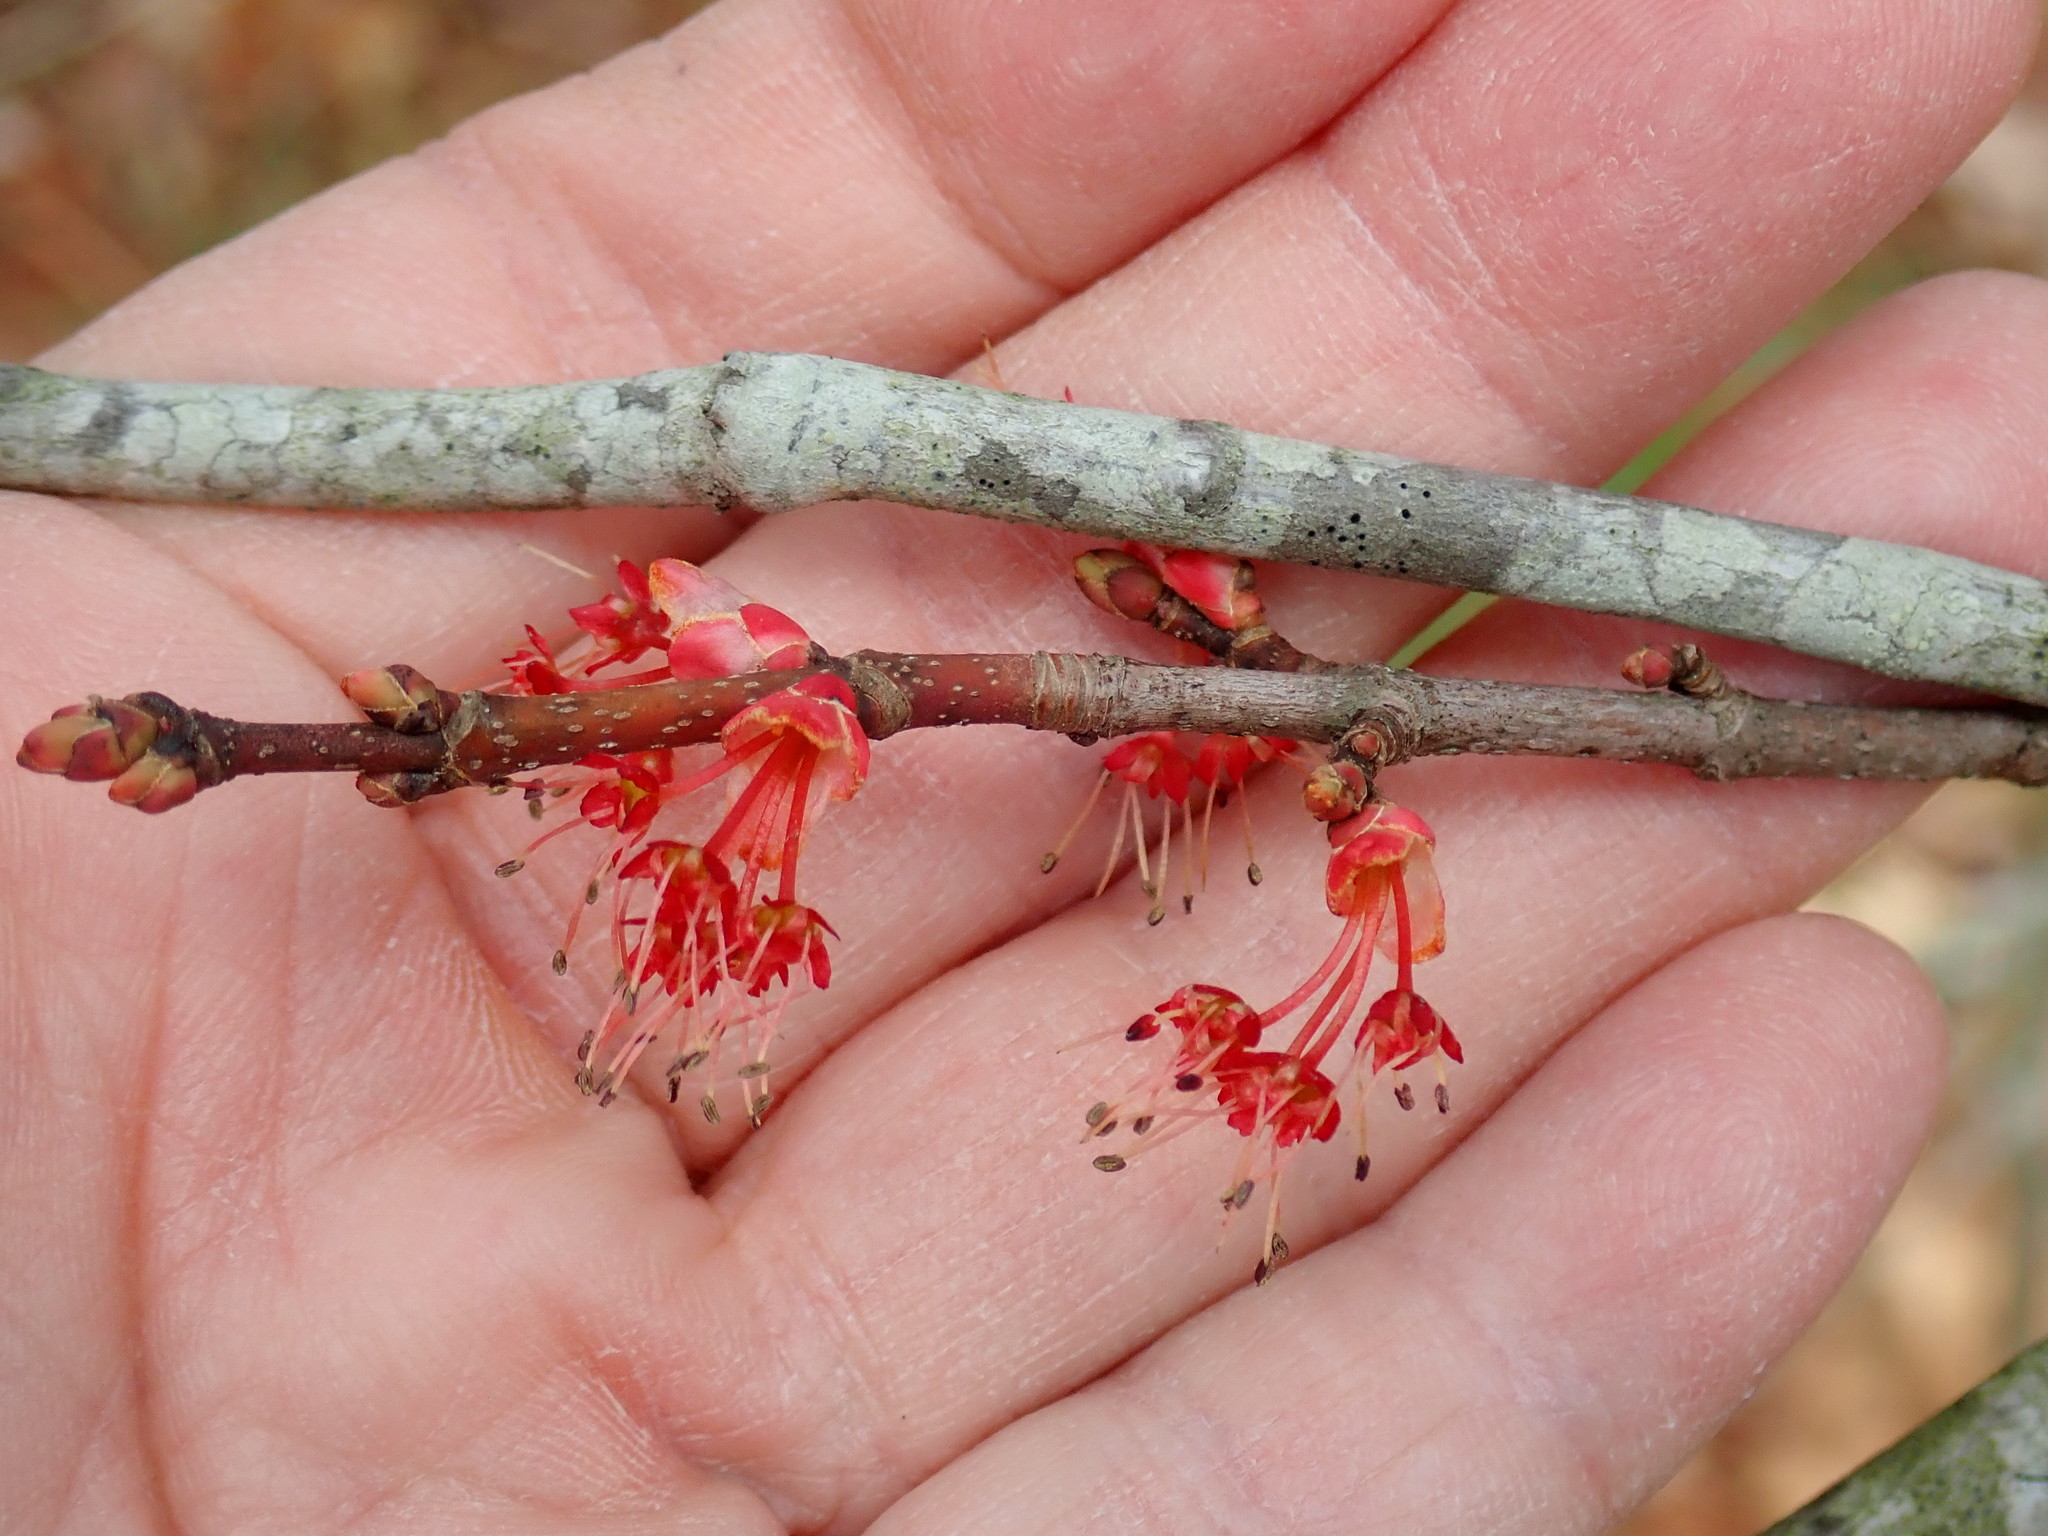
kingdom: Plantae
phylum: Tracheophyta
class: Magnoliopsida
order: Sapindales
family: Sapindaceae
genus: Acer
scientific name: Acer rubrum
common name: Red maple
